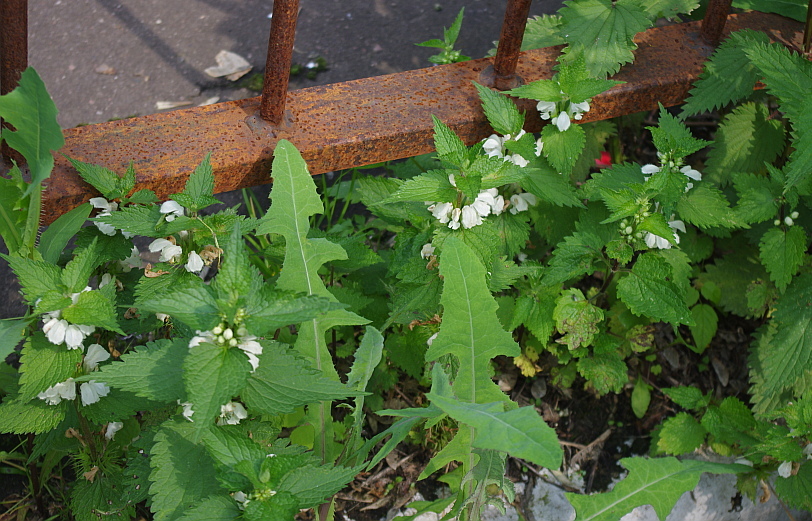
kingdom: Plantae
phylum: Tracheophyta
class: Magnoliopsida
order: Lamiales
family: Lamiaceae
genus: Lamium
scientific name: Lamium album
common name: White dead-nettle
